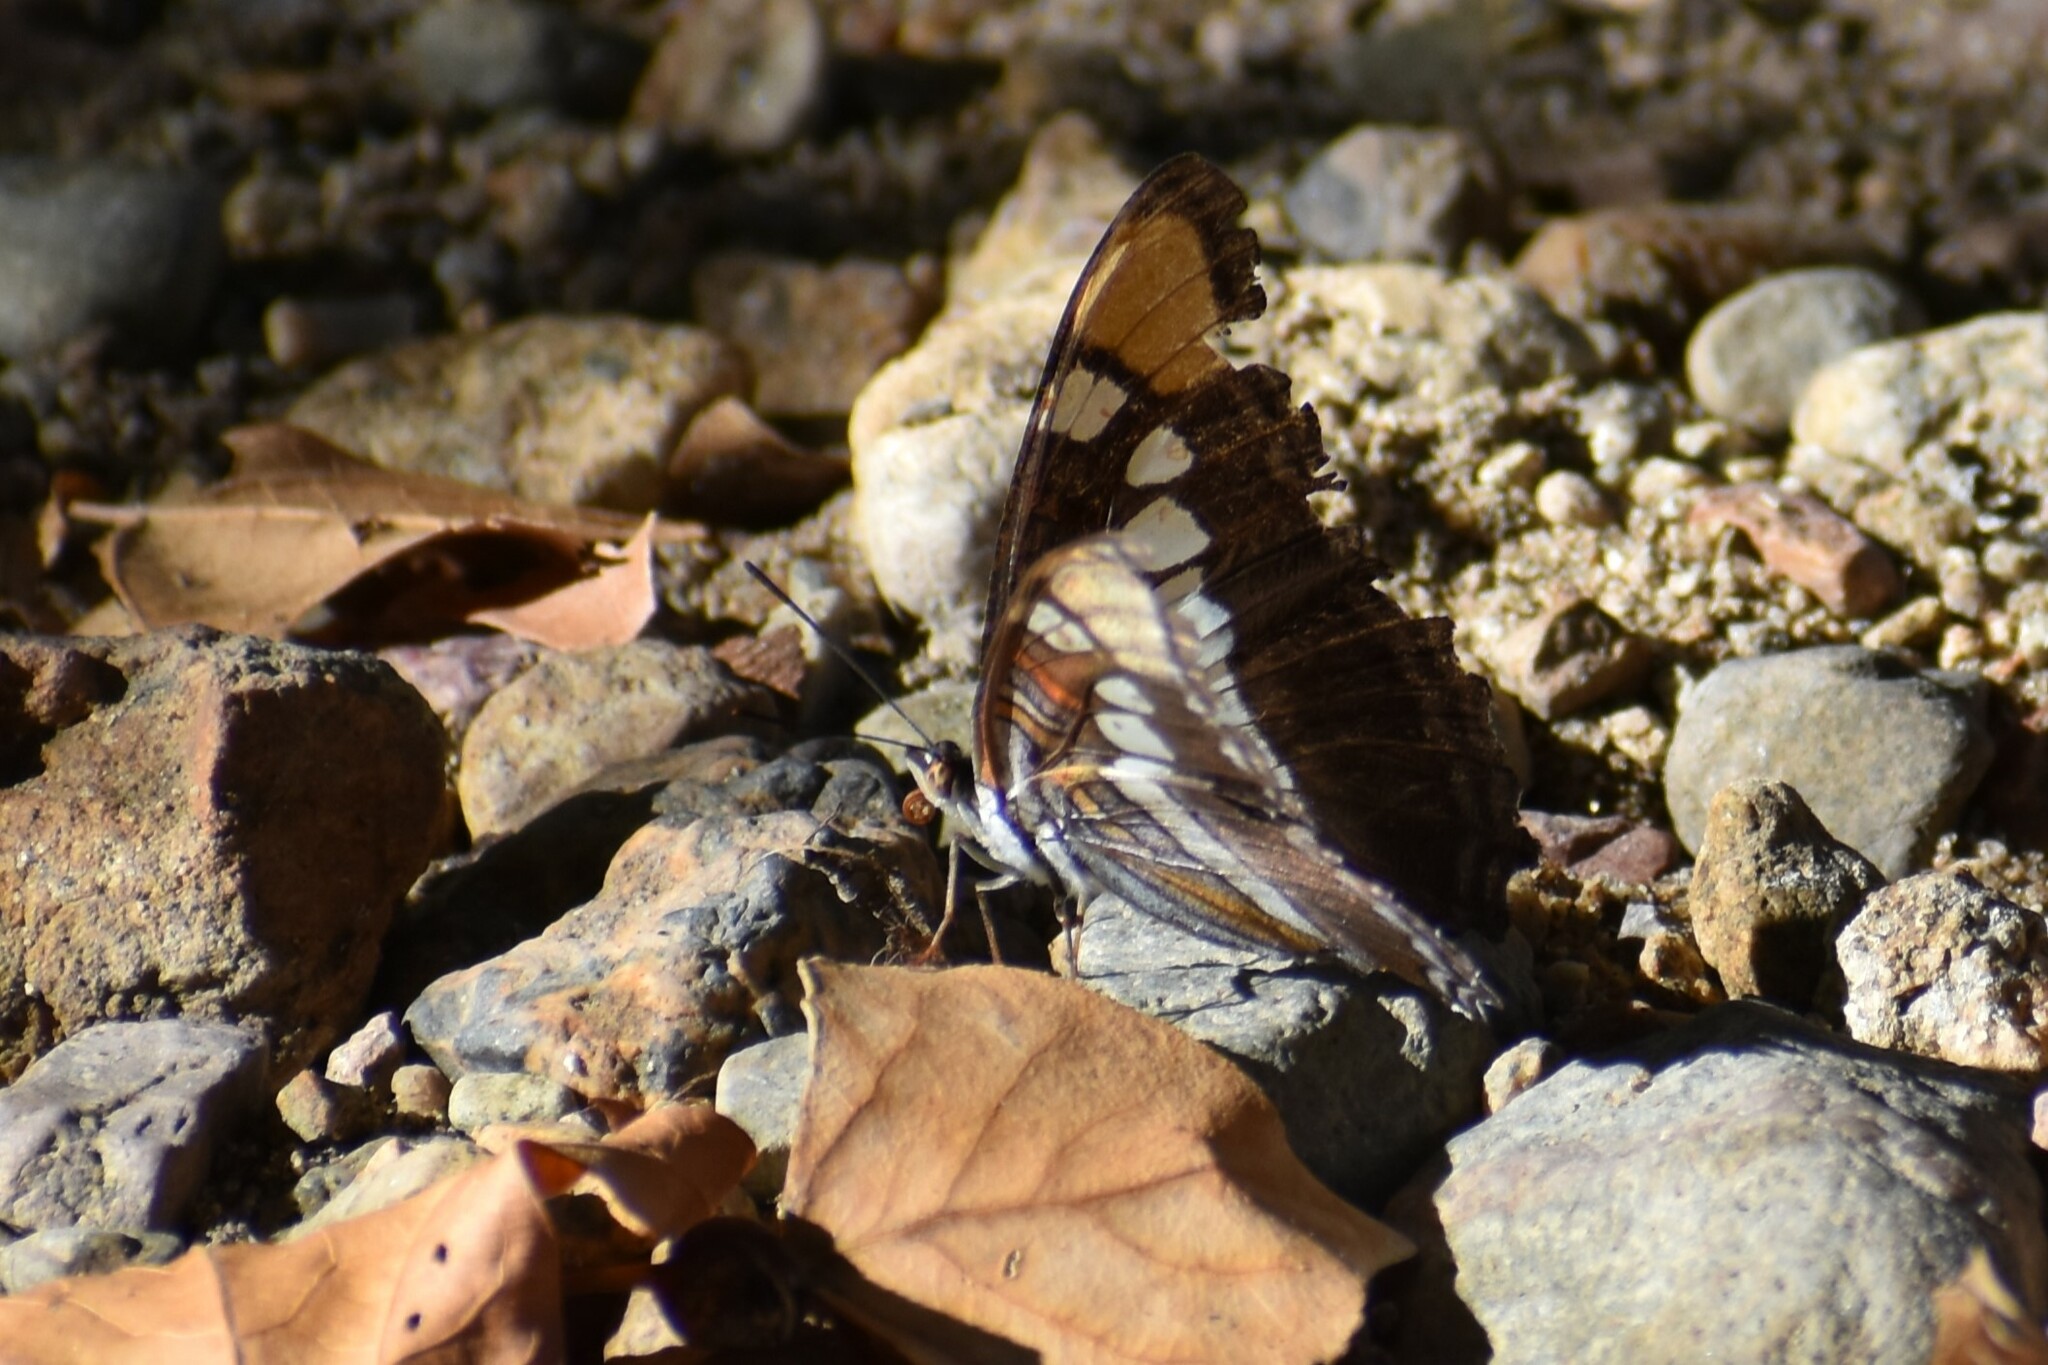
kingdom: Animalia
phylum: Arthropoda
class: Insecta
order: Lepidoptera
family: Nymphalidae
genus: Limenitis
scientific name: Limenitis bredowii
